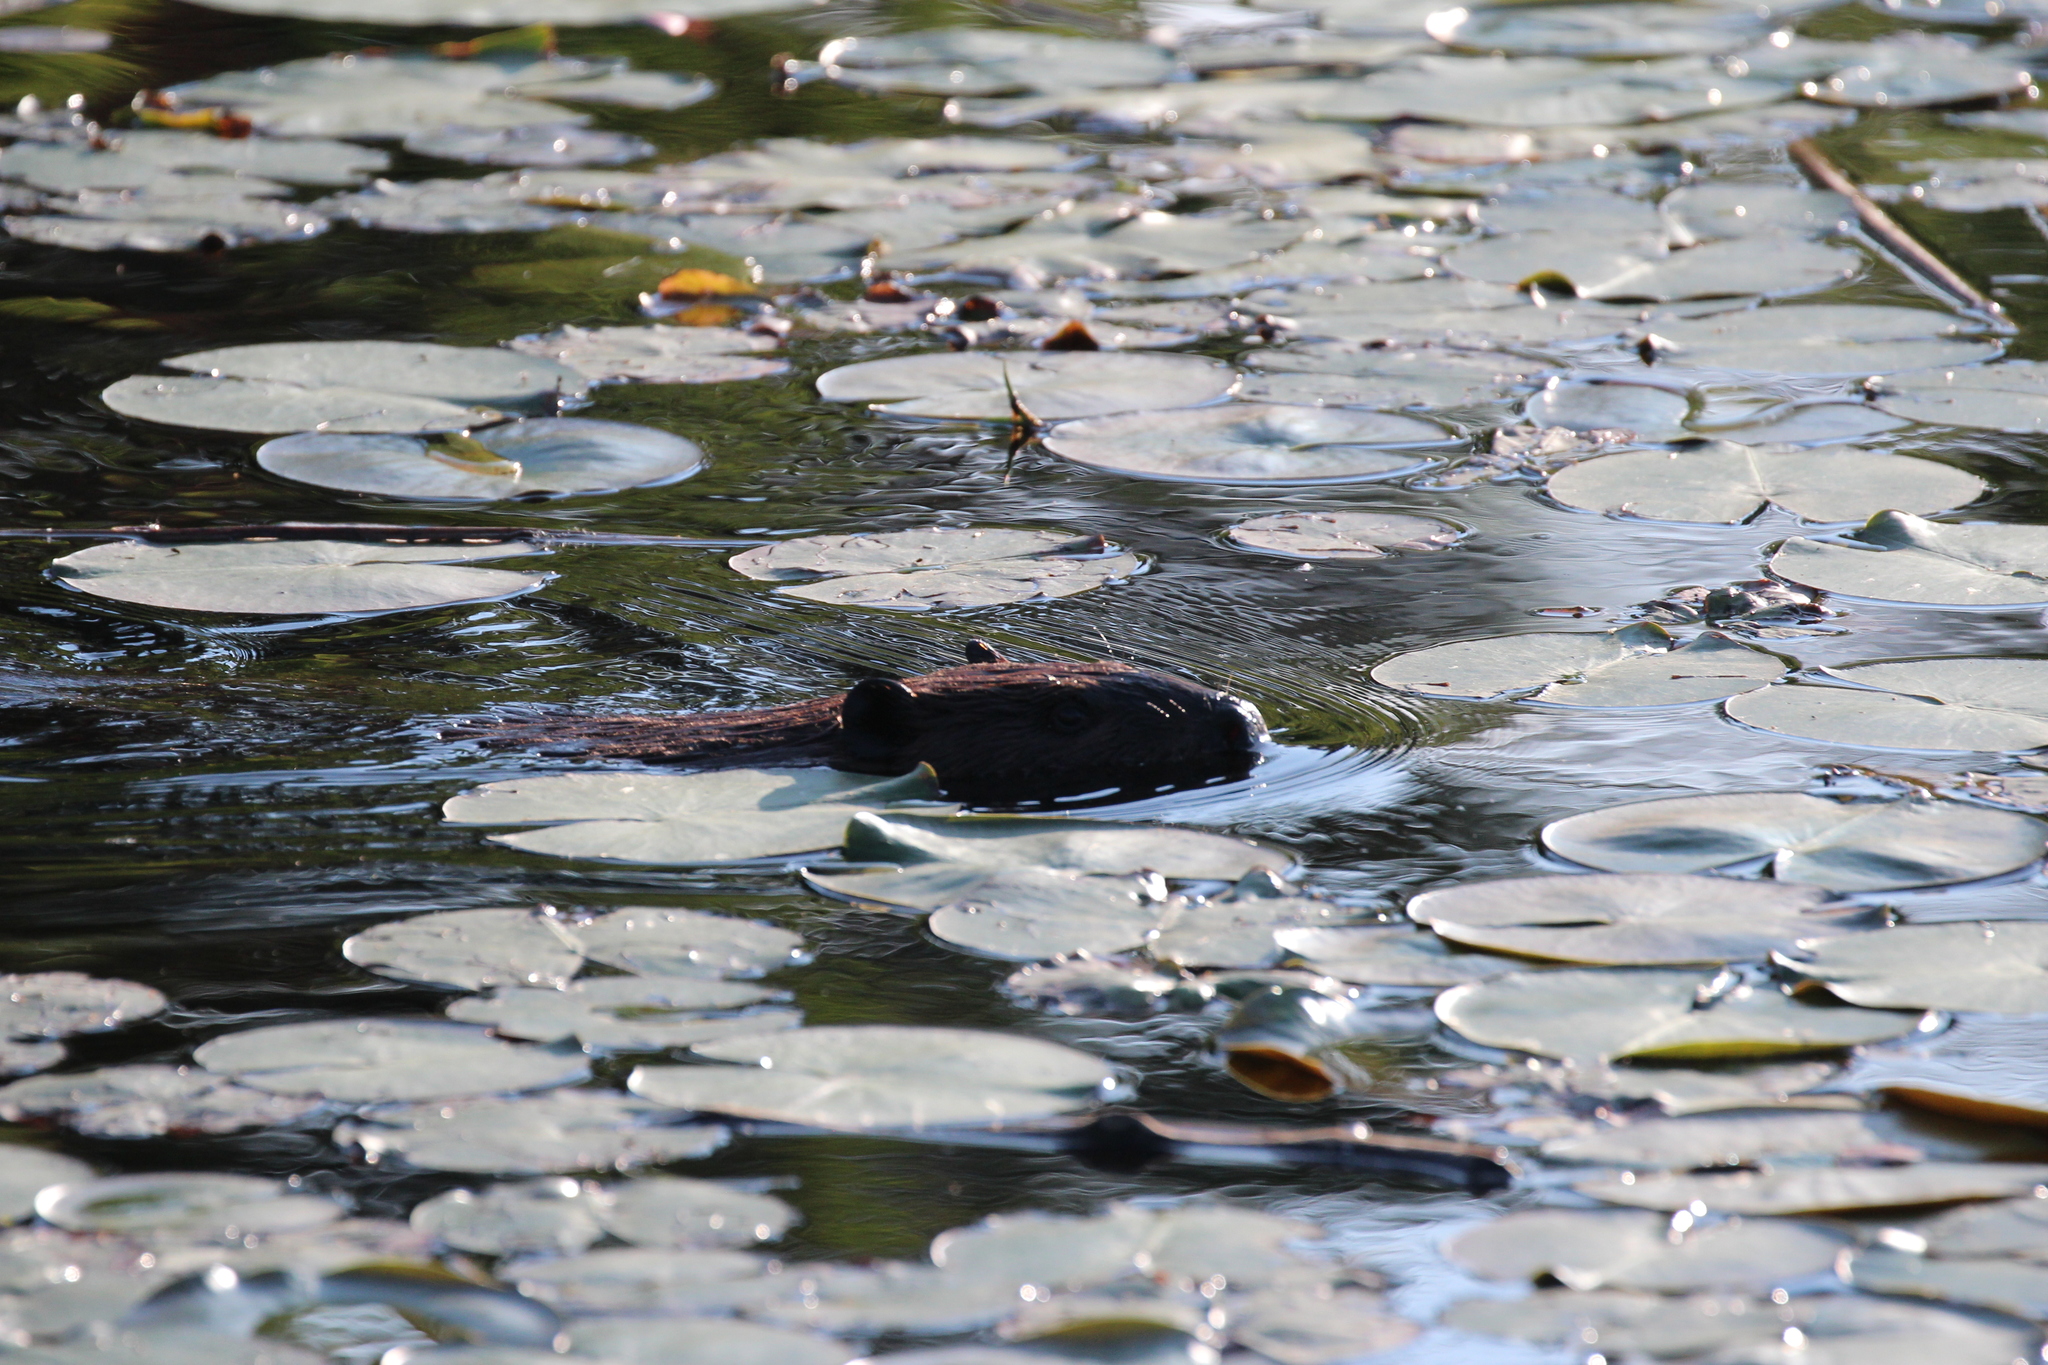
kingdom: Animalia
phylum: Chordata
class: Mammalia
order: Rodentia
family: Castoridae
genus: Castor
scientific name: Castor canadensis
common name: American beaver
